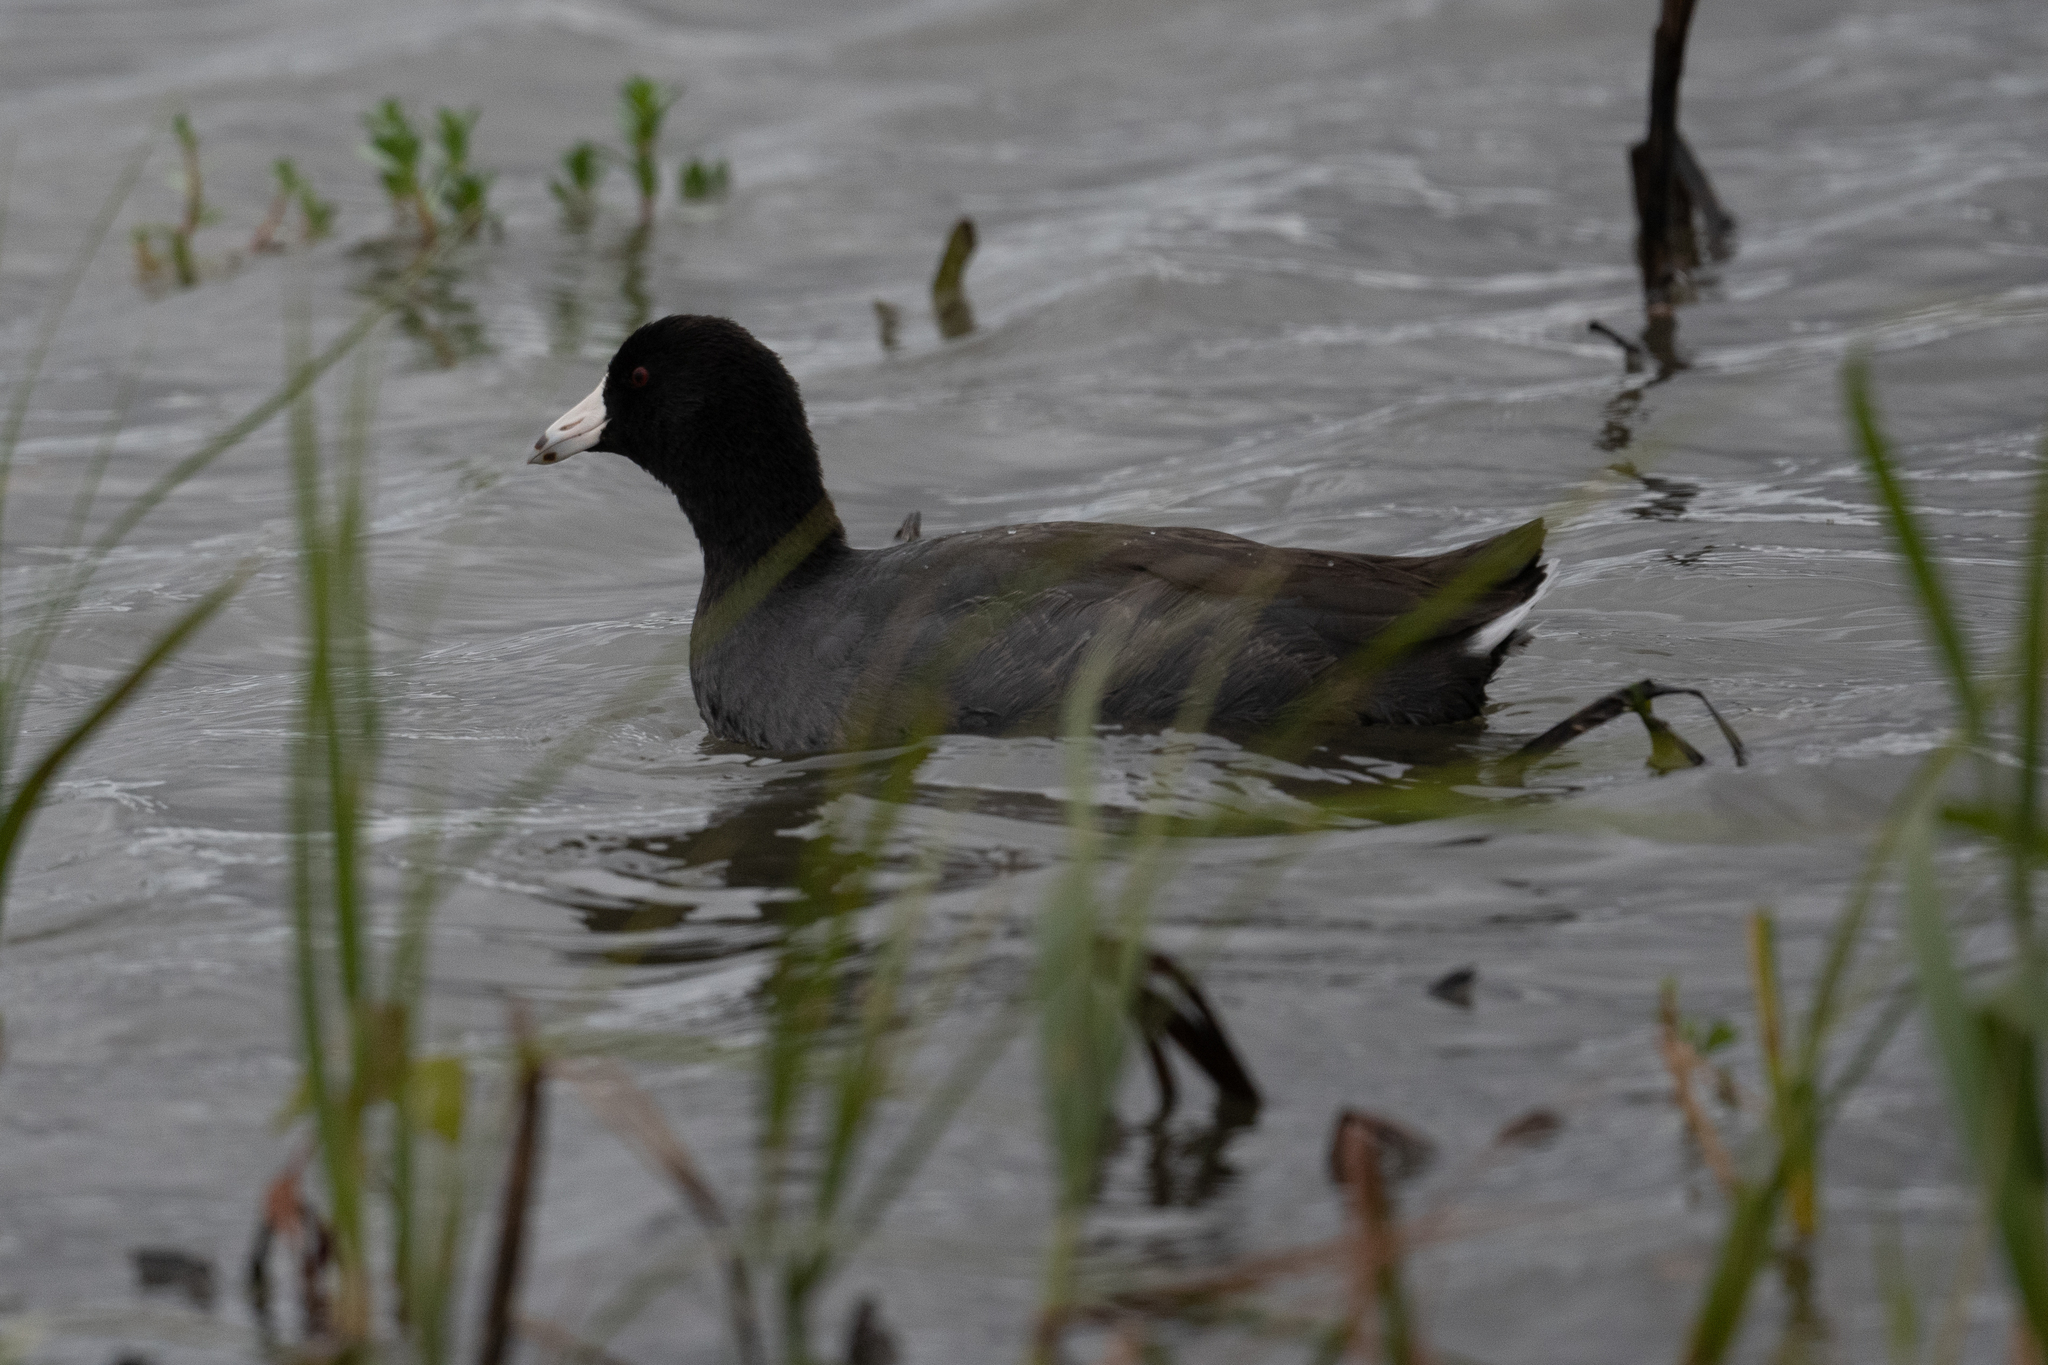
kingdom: Animalia
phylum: Chordata
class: Aves
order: Gruiformes
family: Rallidae
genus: Fulica
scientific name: Fulica americana
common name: American coot
